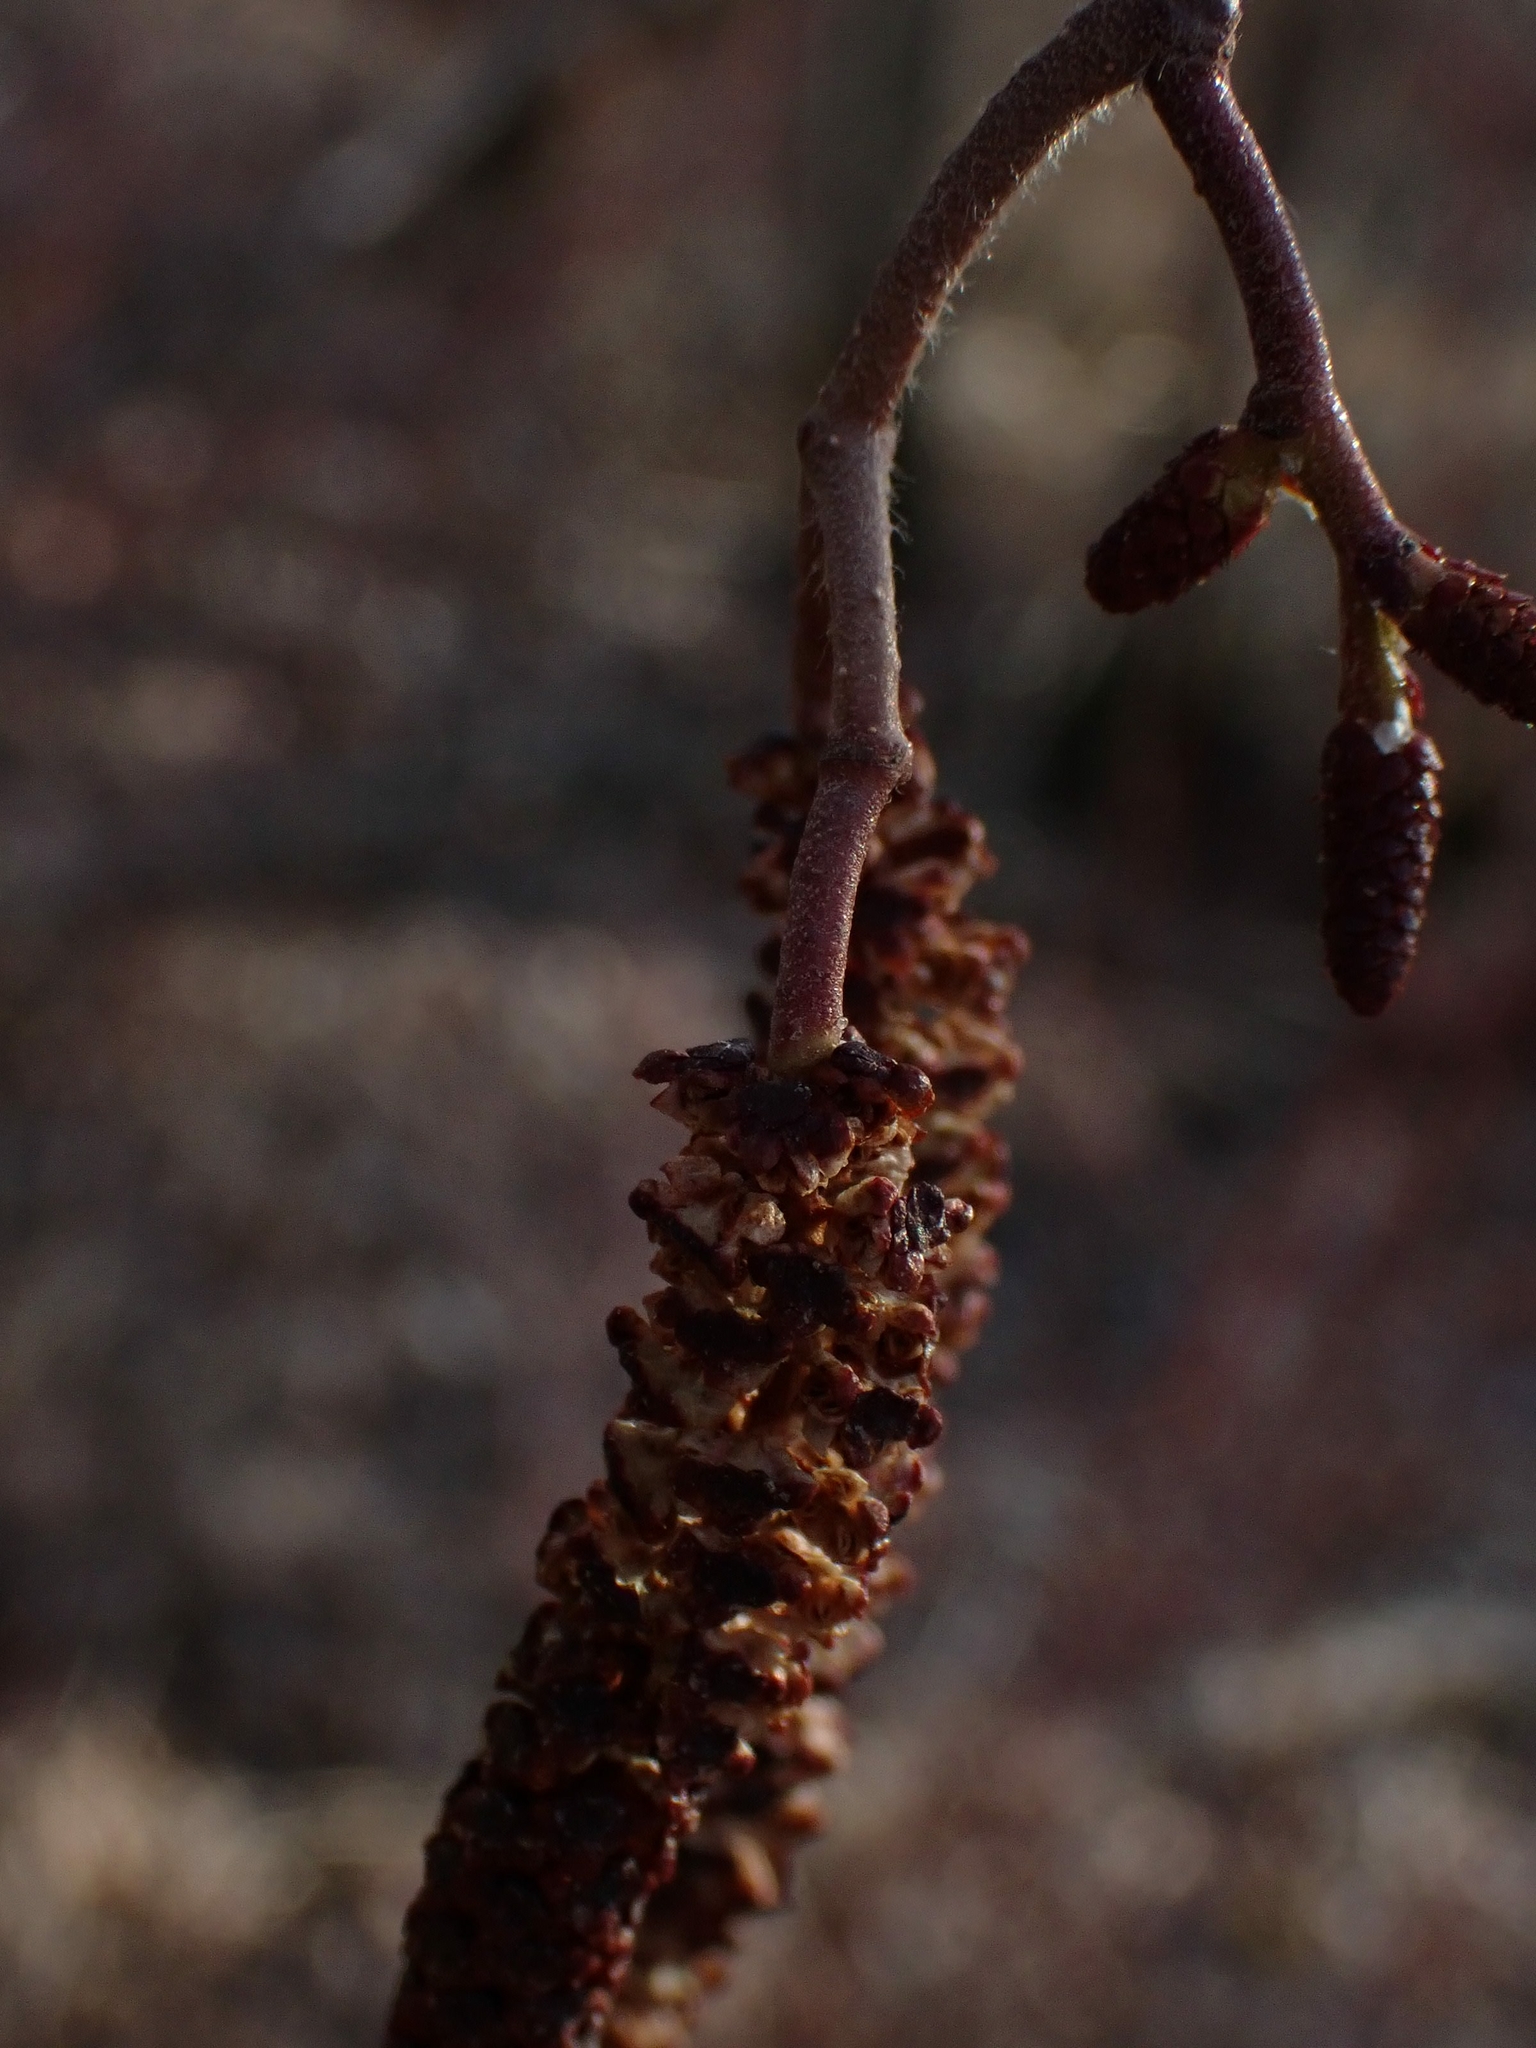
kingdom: Plantae
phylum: Tracheophyta
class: Magnoliopsida
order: Fagales
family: Betulaceae
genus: Alnus
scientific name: Alnus incana
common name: Grey alder
